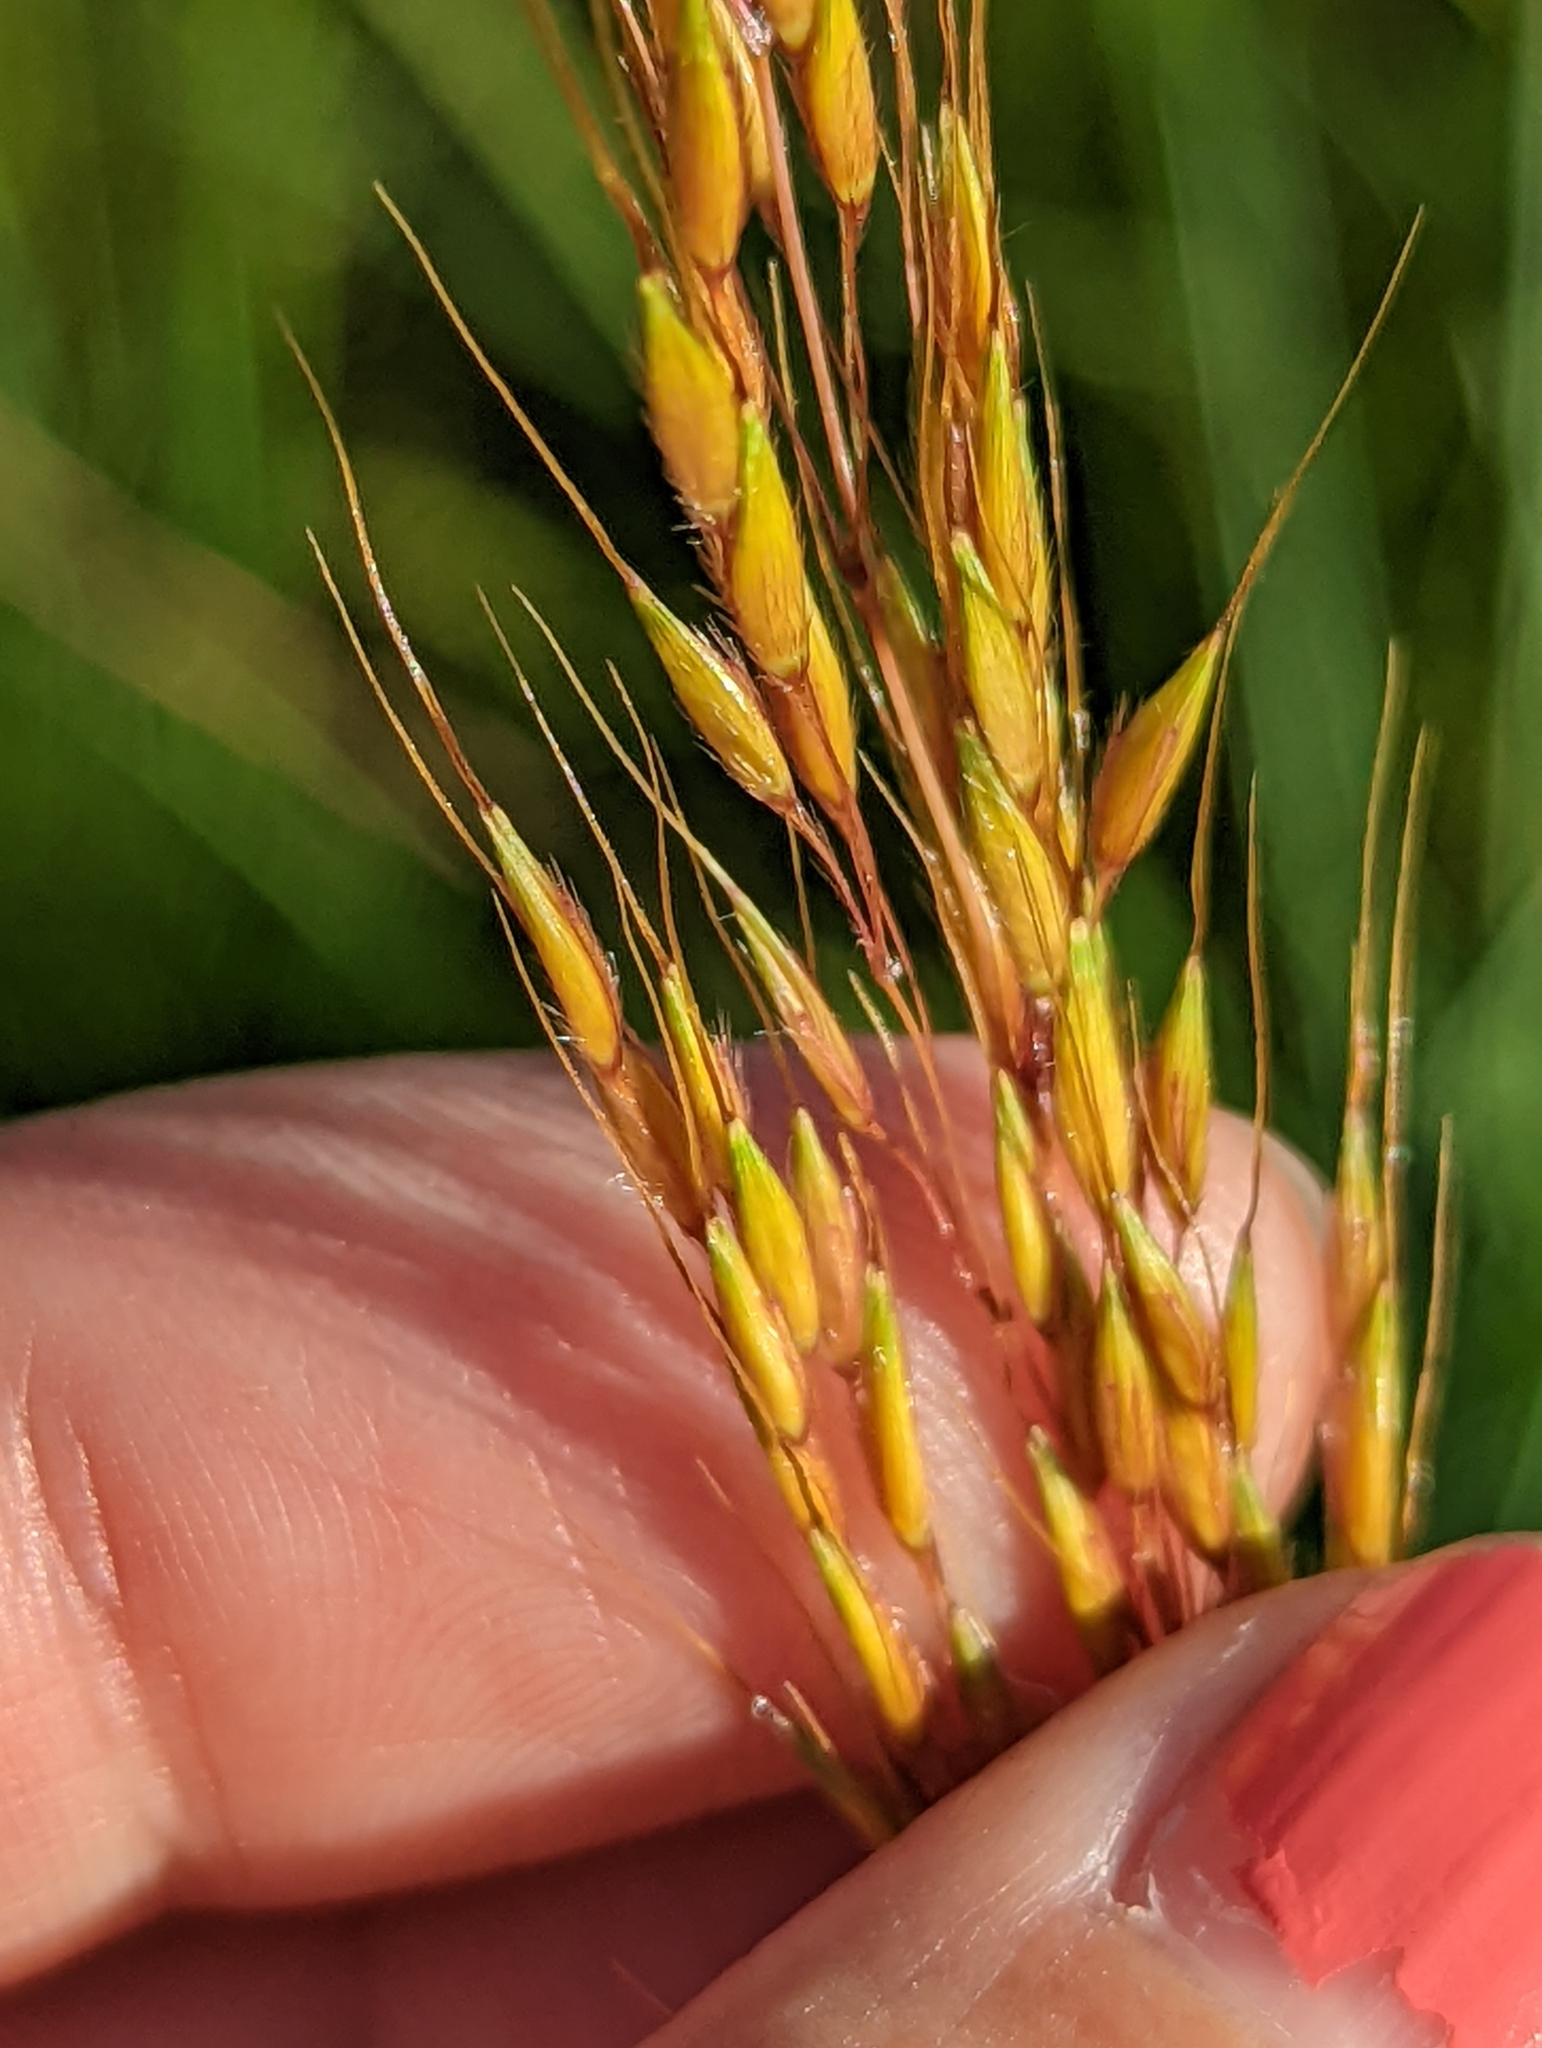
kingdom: Plantae
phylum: Tracheophyta
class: Liliopsida
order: Poales
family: Poaceae
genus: Sorghastrum
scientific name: Sorghastrum nutans
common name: Indian grass
